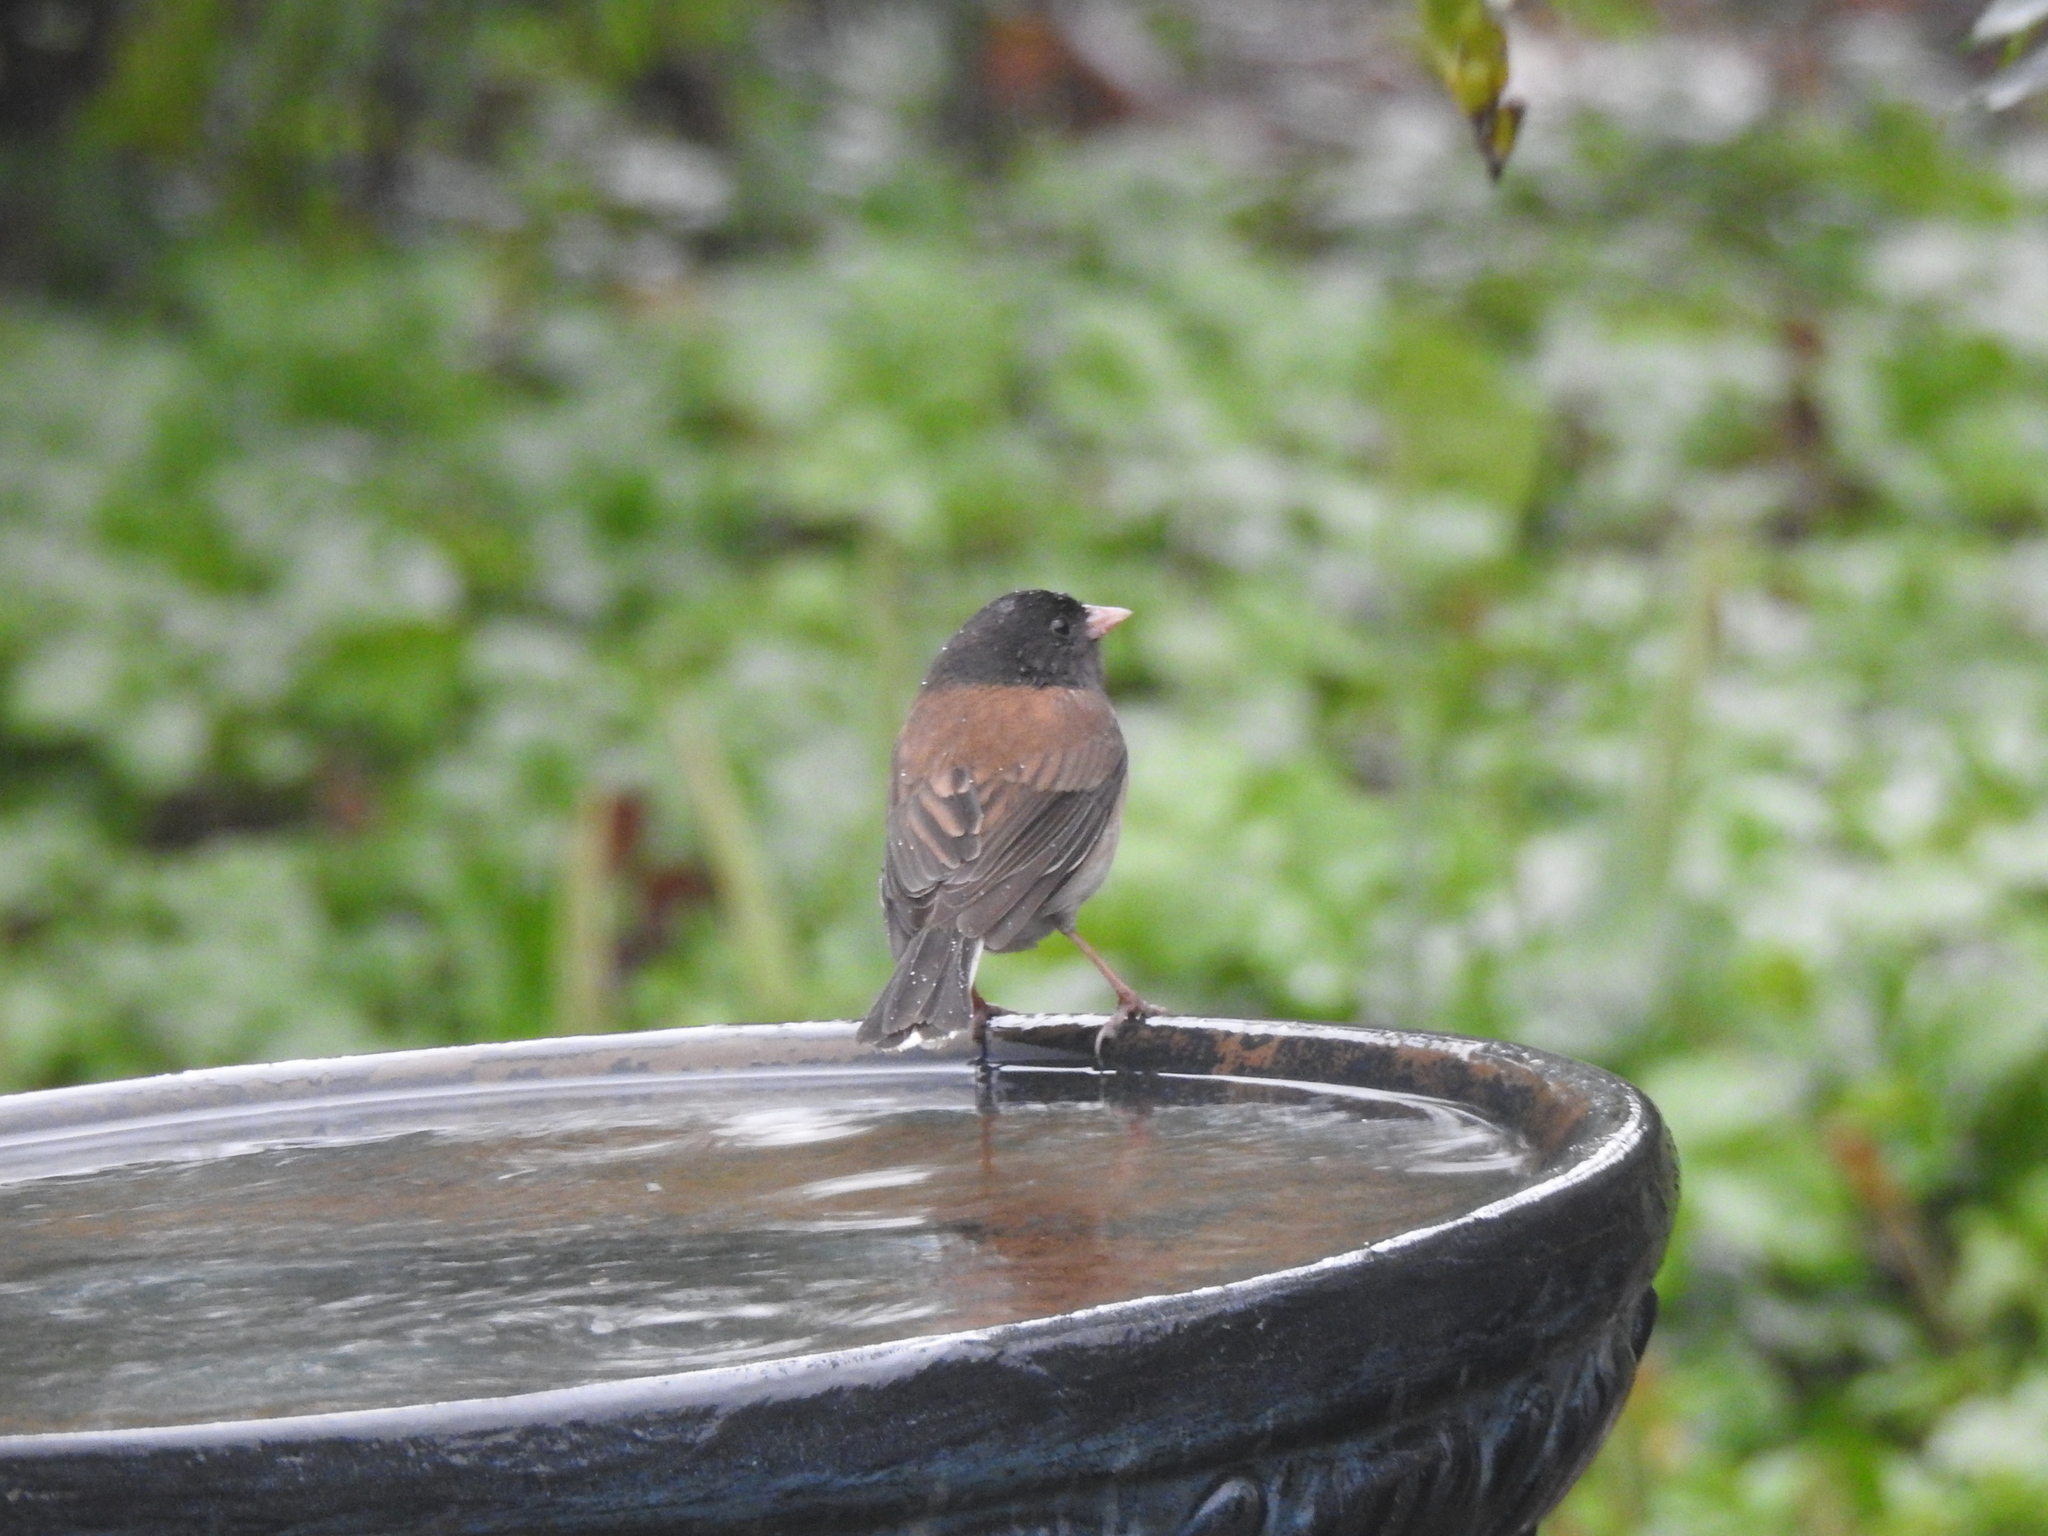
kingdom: Animalia
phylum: Chordata
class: Aves
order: Passeriformes
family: Passerellidae
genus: Junco
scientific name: Junco hyemalis
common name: Dark-eyed junco
